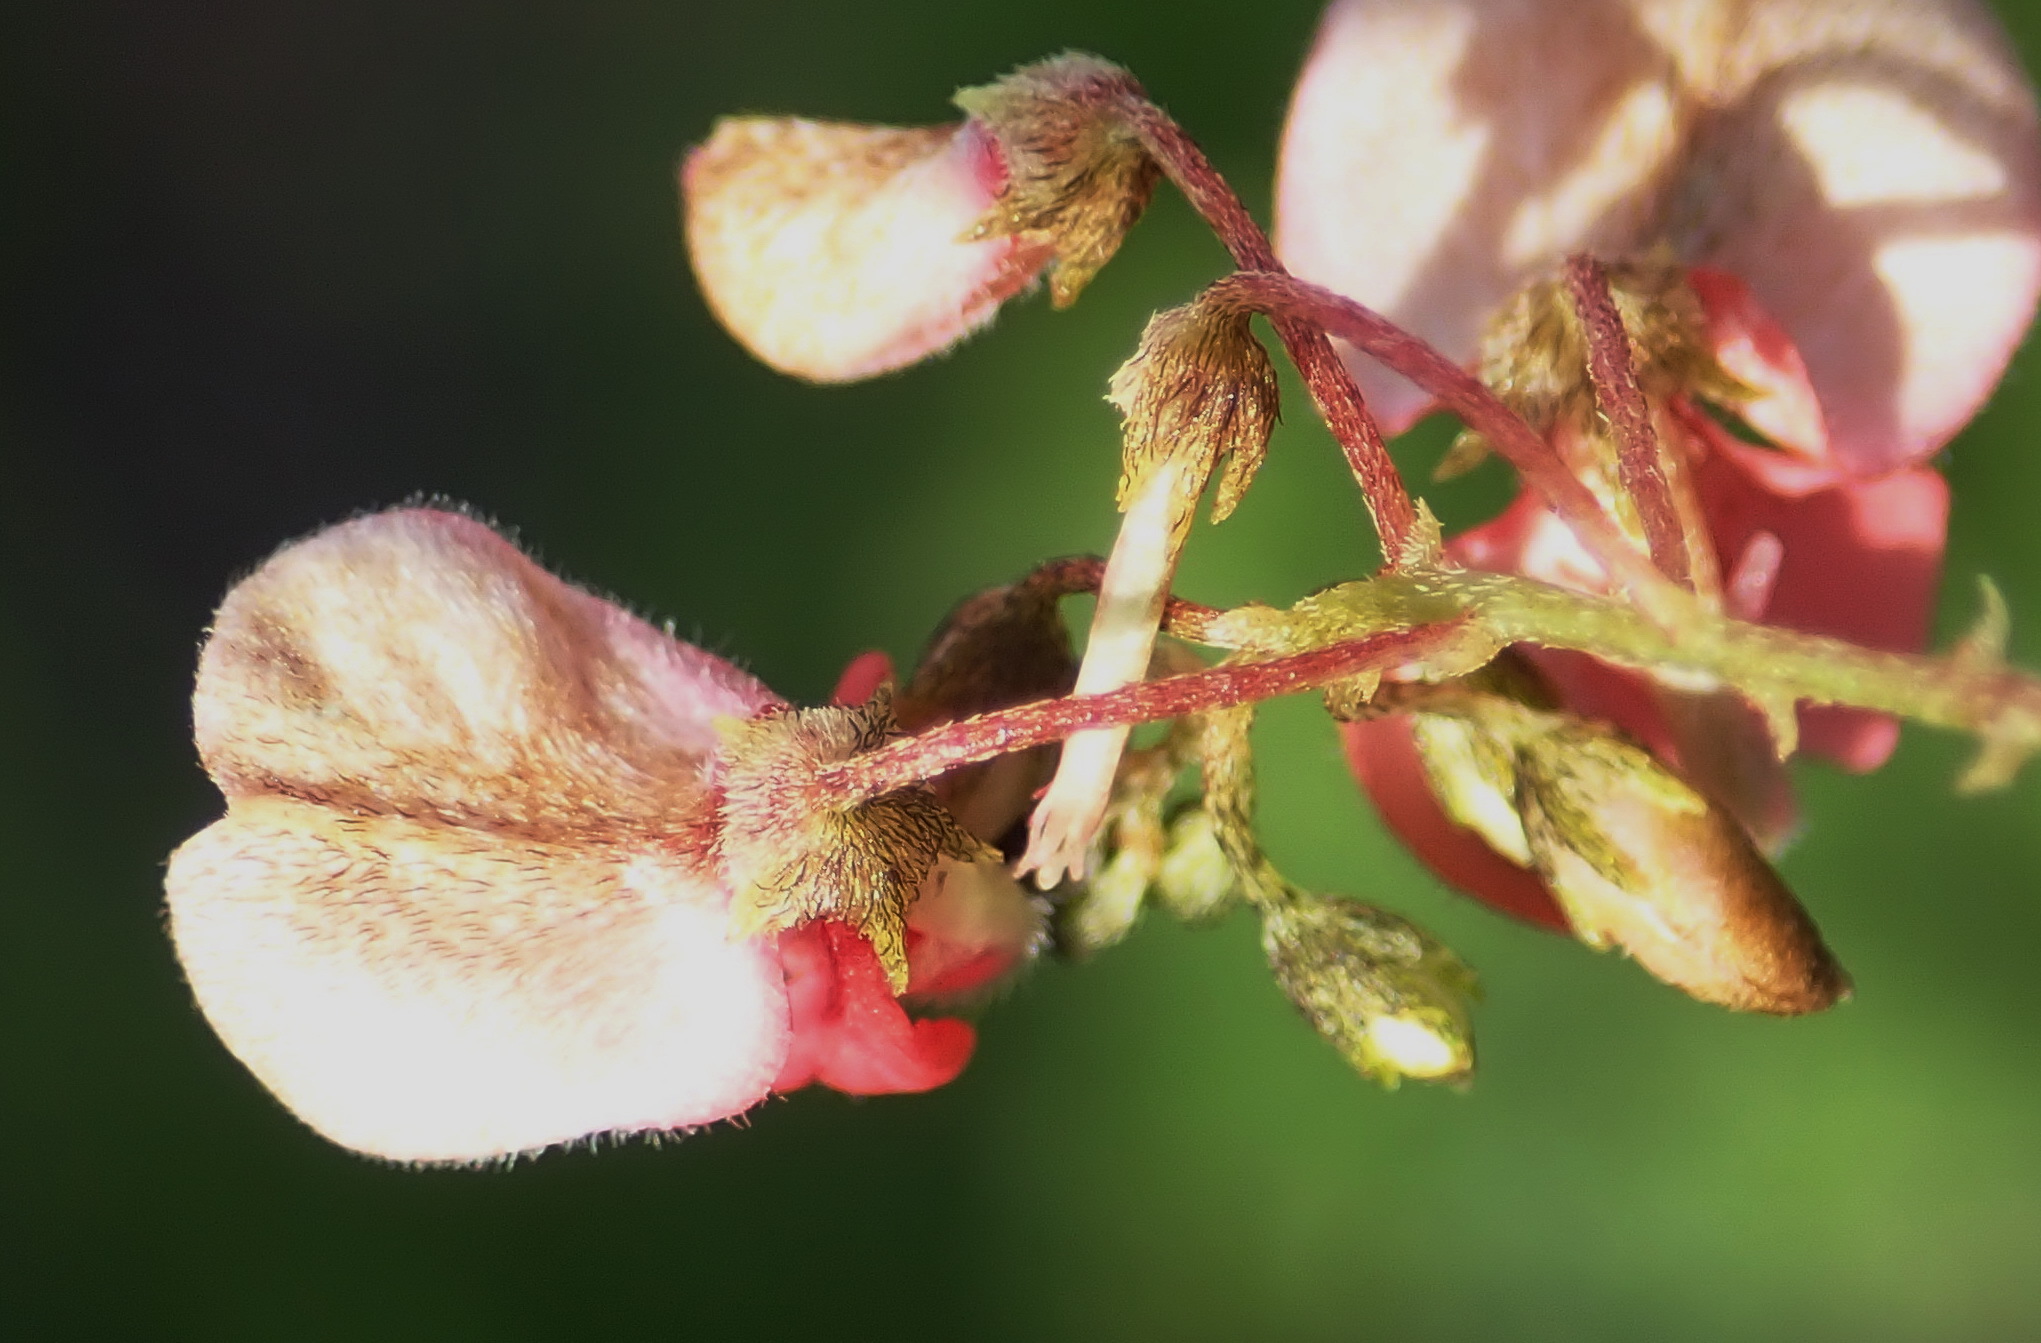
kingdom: Plantae
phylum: Tracheophyta
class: Magnoliopsida
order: Fabales
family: Fabaceae
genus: Indigofera
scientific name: Indigofera verrucosa
